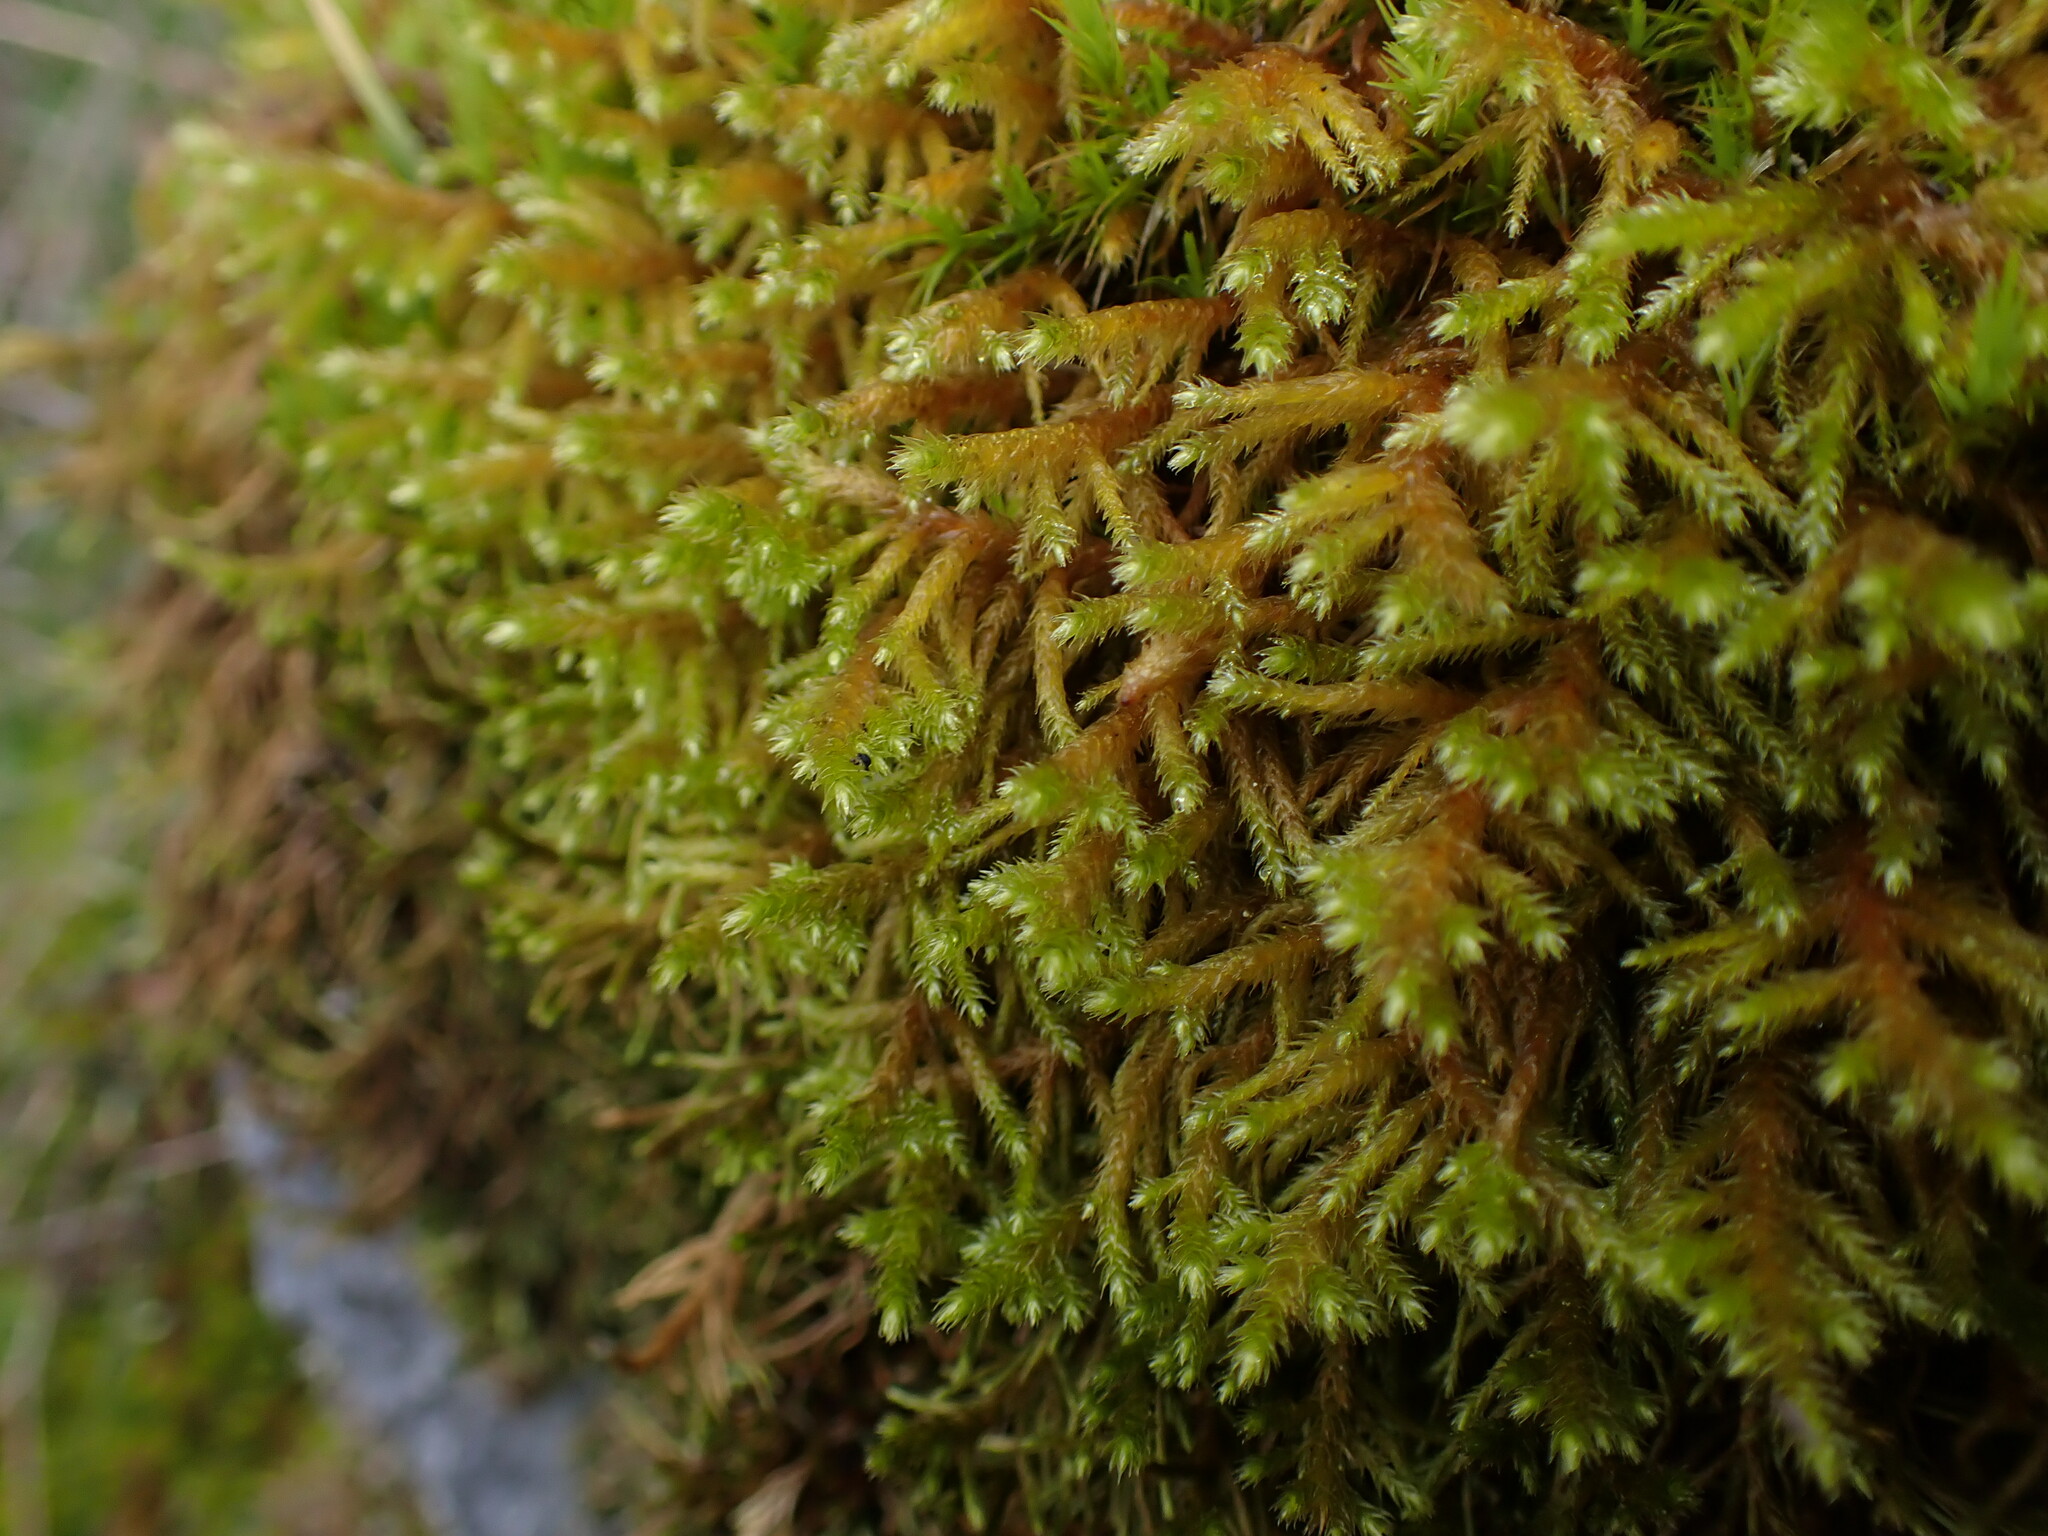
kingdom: Plantae
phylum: Bryophyta
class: Bryopsida
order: Hypnales
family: Antitrichiaceae
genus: Antitrichia
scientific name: Antitrichia californica
